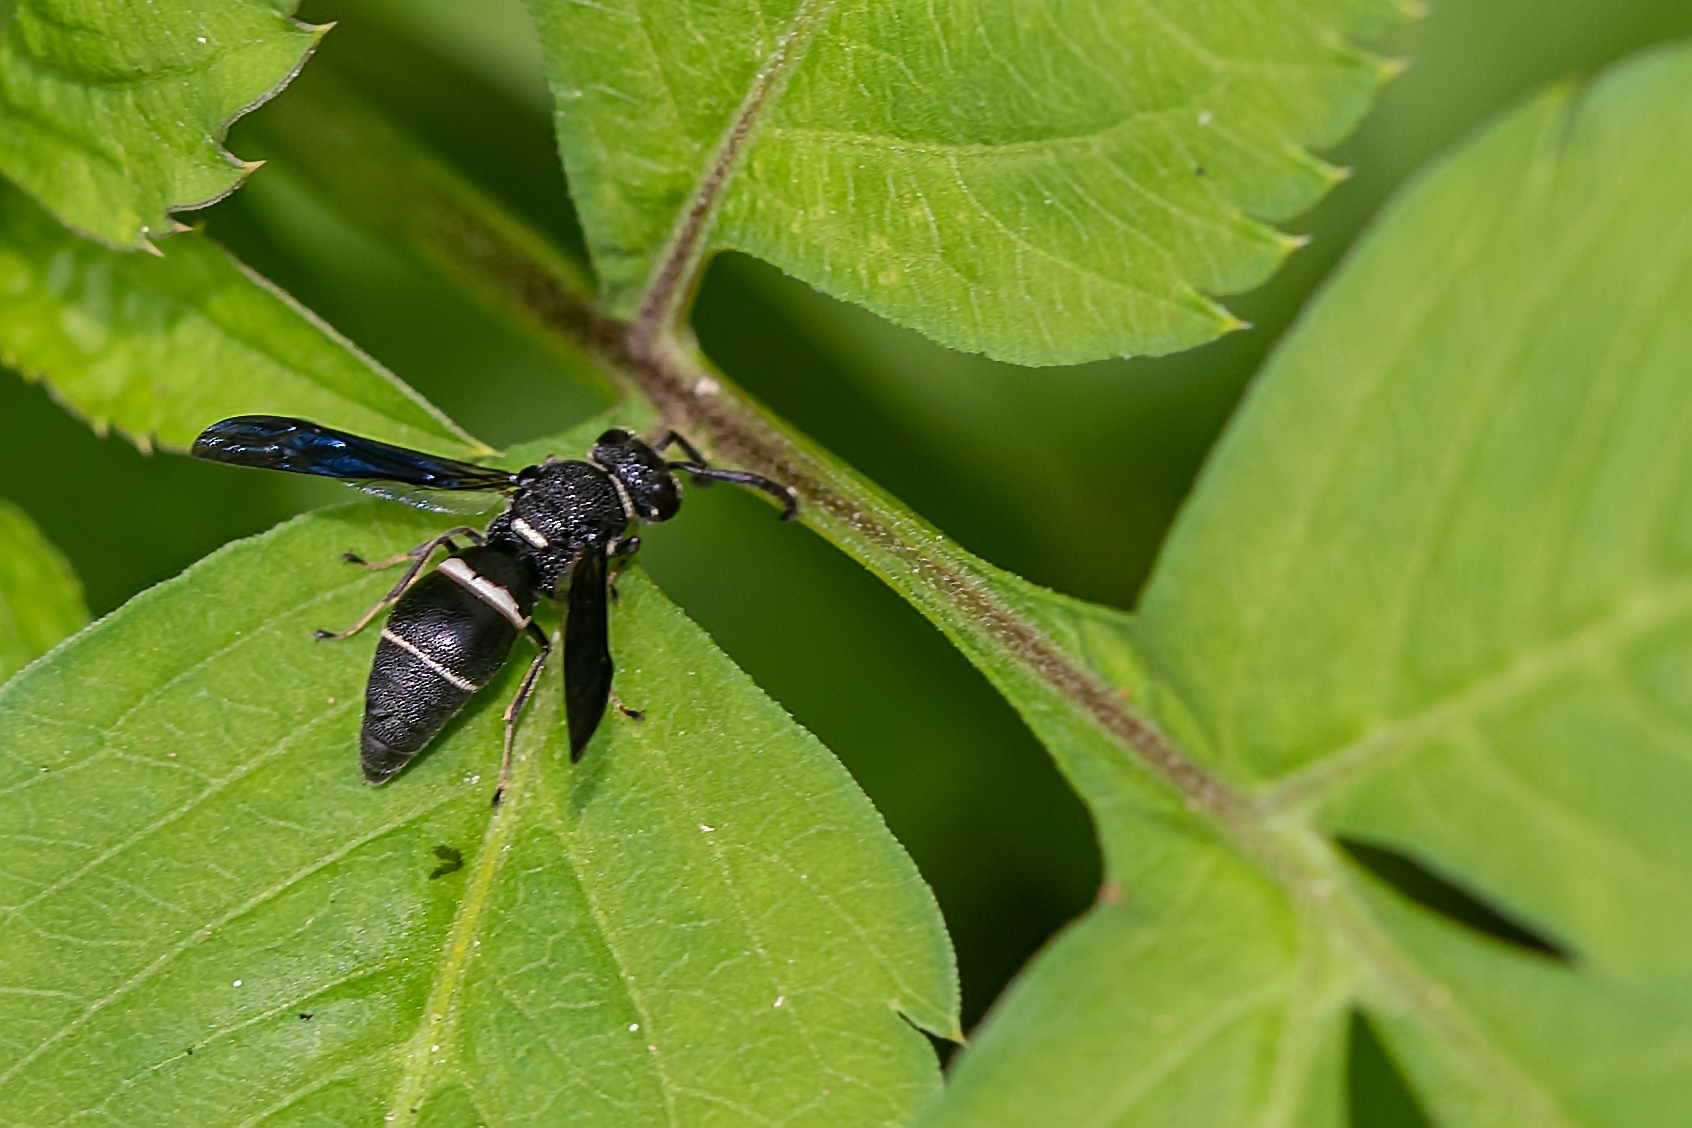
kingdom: Animalia
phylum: Arthropoda
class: Insecta
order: Hymenoptera
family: Eumenidae
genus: Euodynerus
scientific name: Euodynerus megaera
